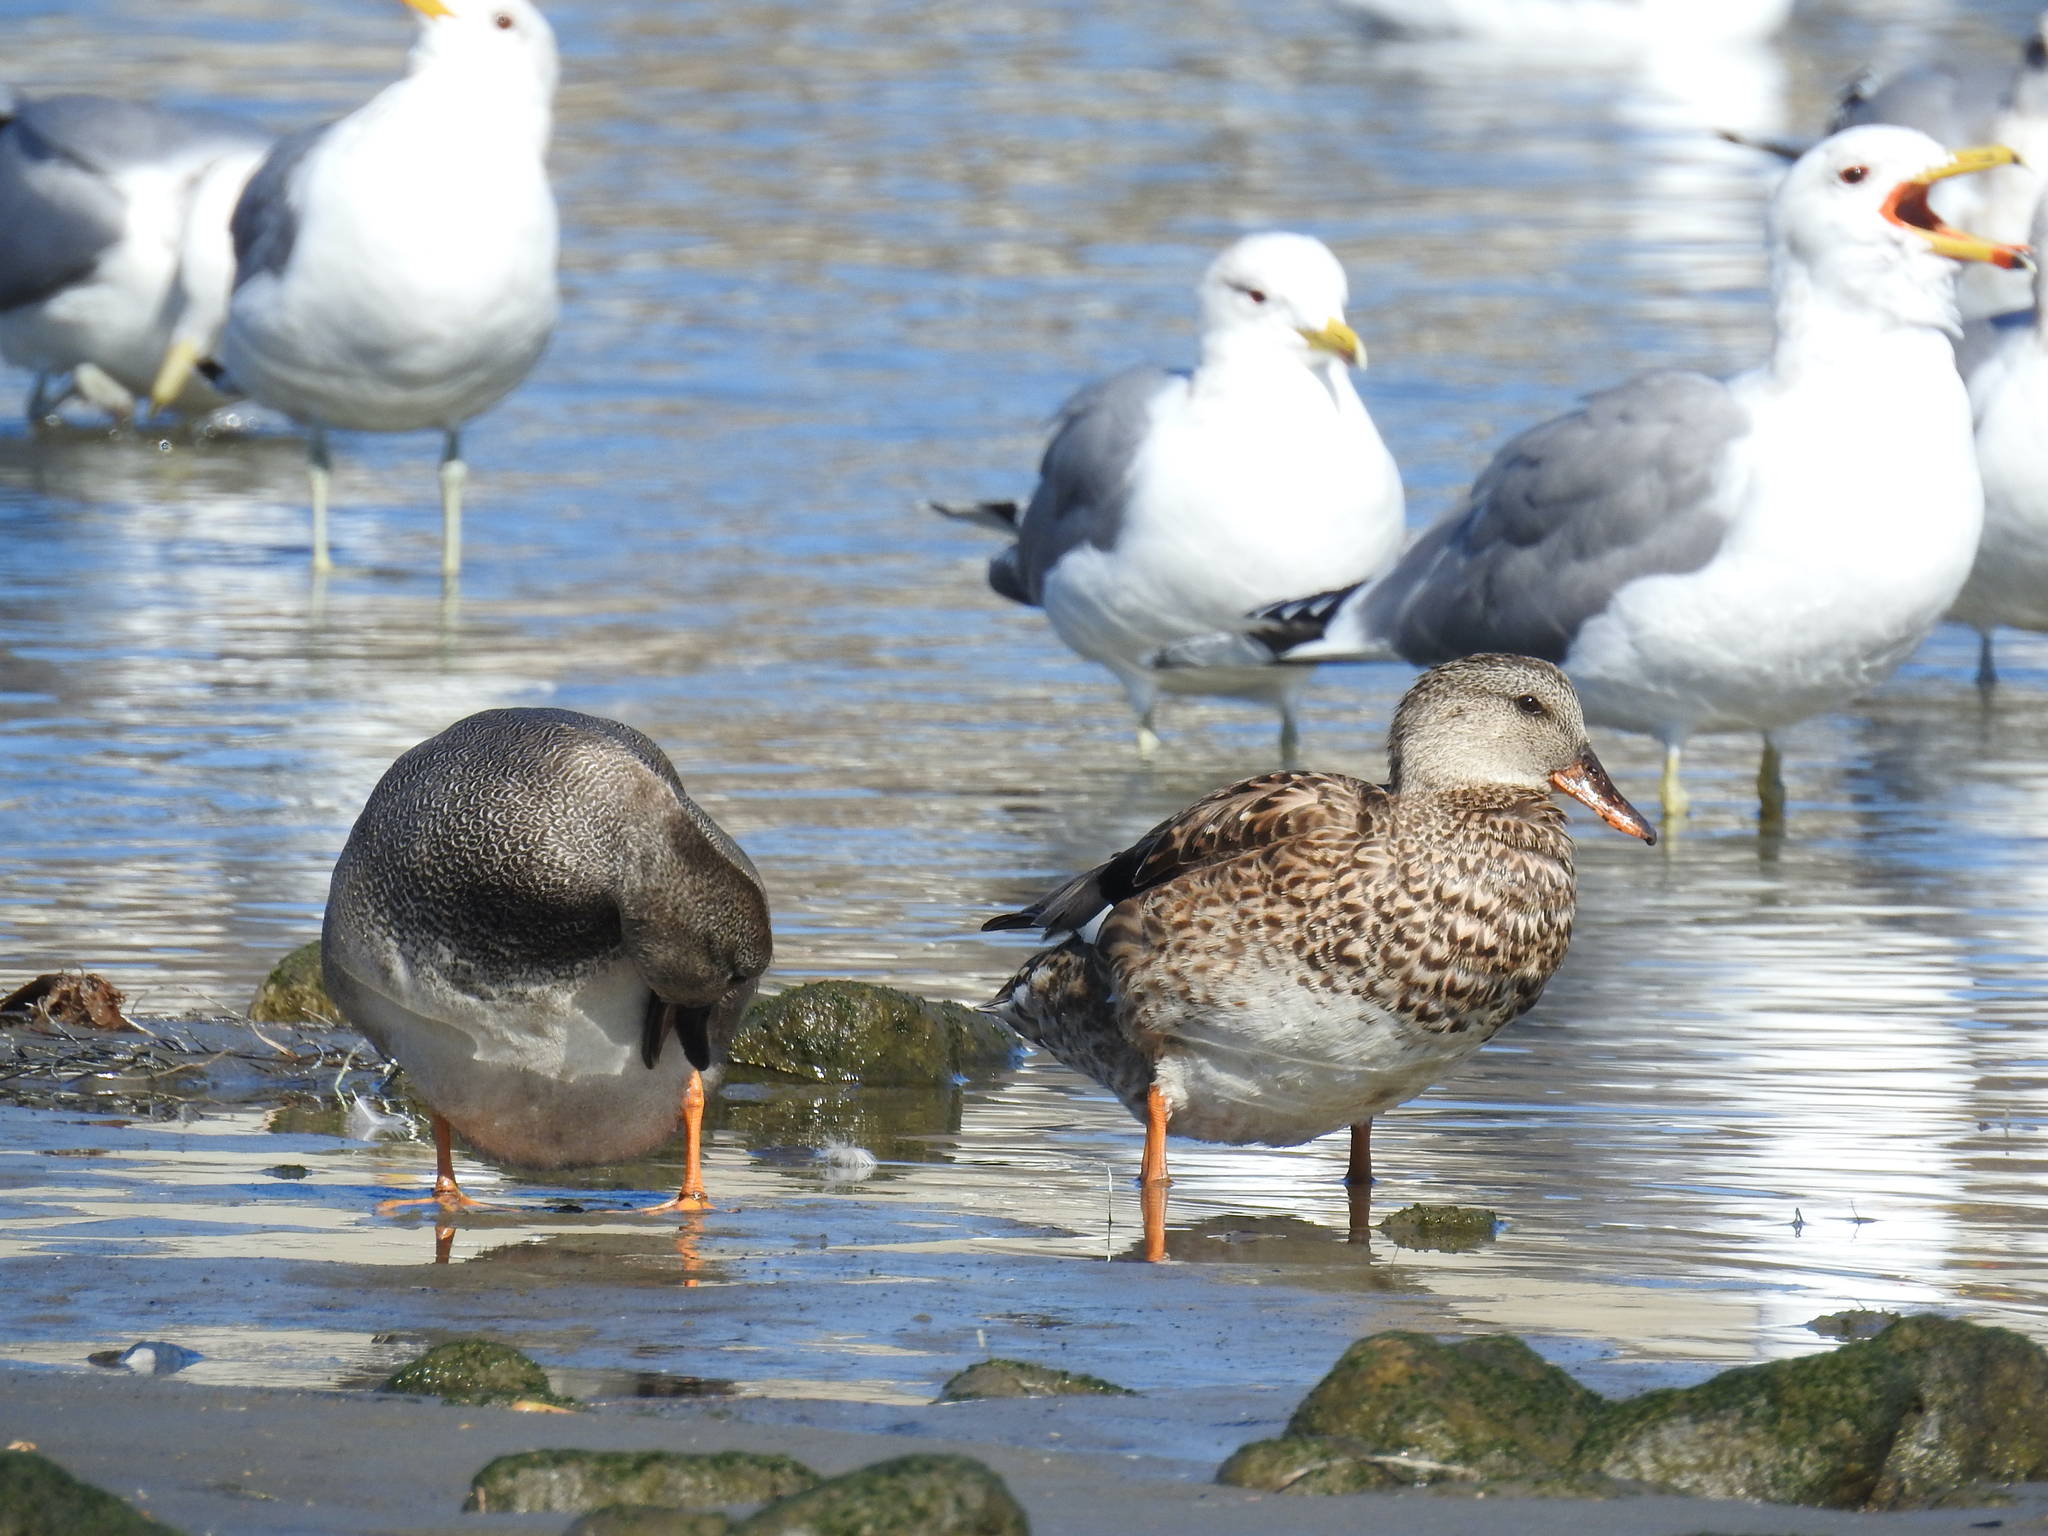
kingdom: Animalia
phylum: Chordata
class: Aves
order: Anseriformes
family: Anatidae
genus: Mareca
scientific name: Mareca strepera
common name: Gadwall
